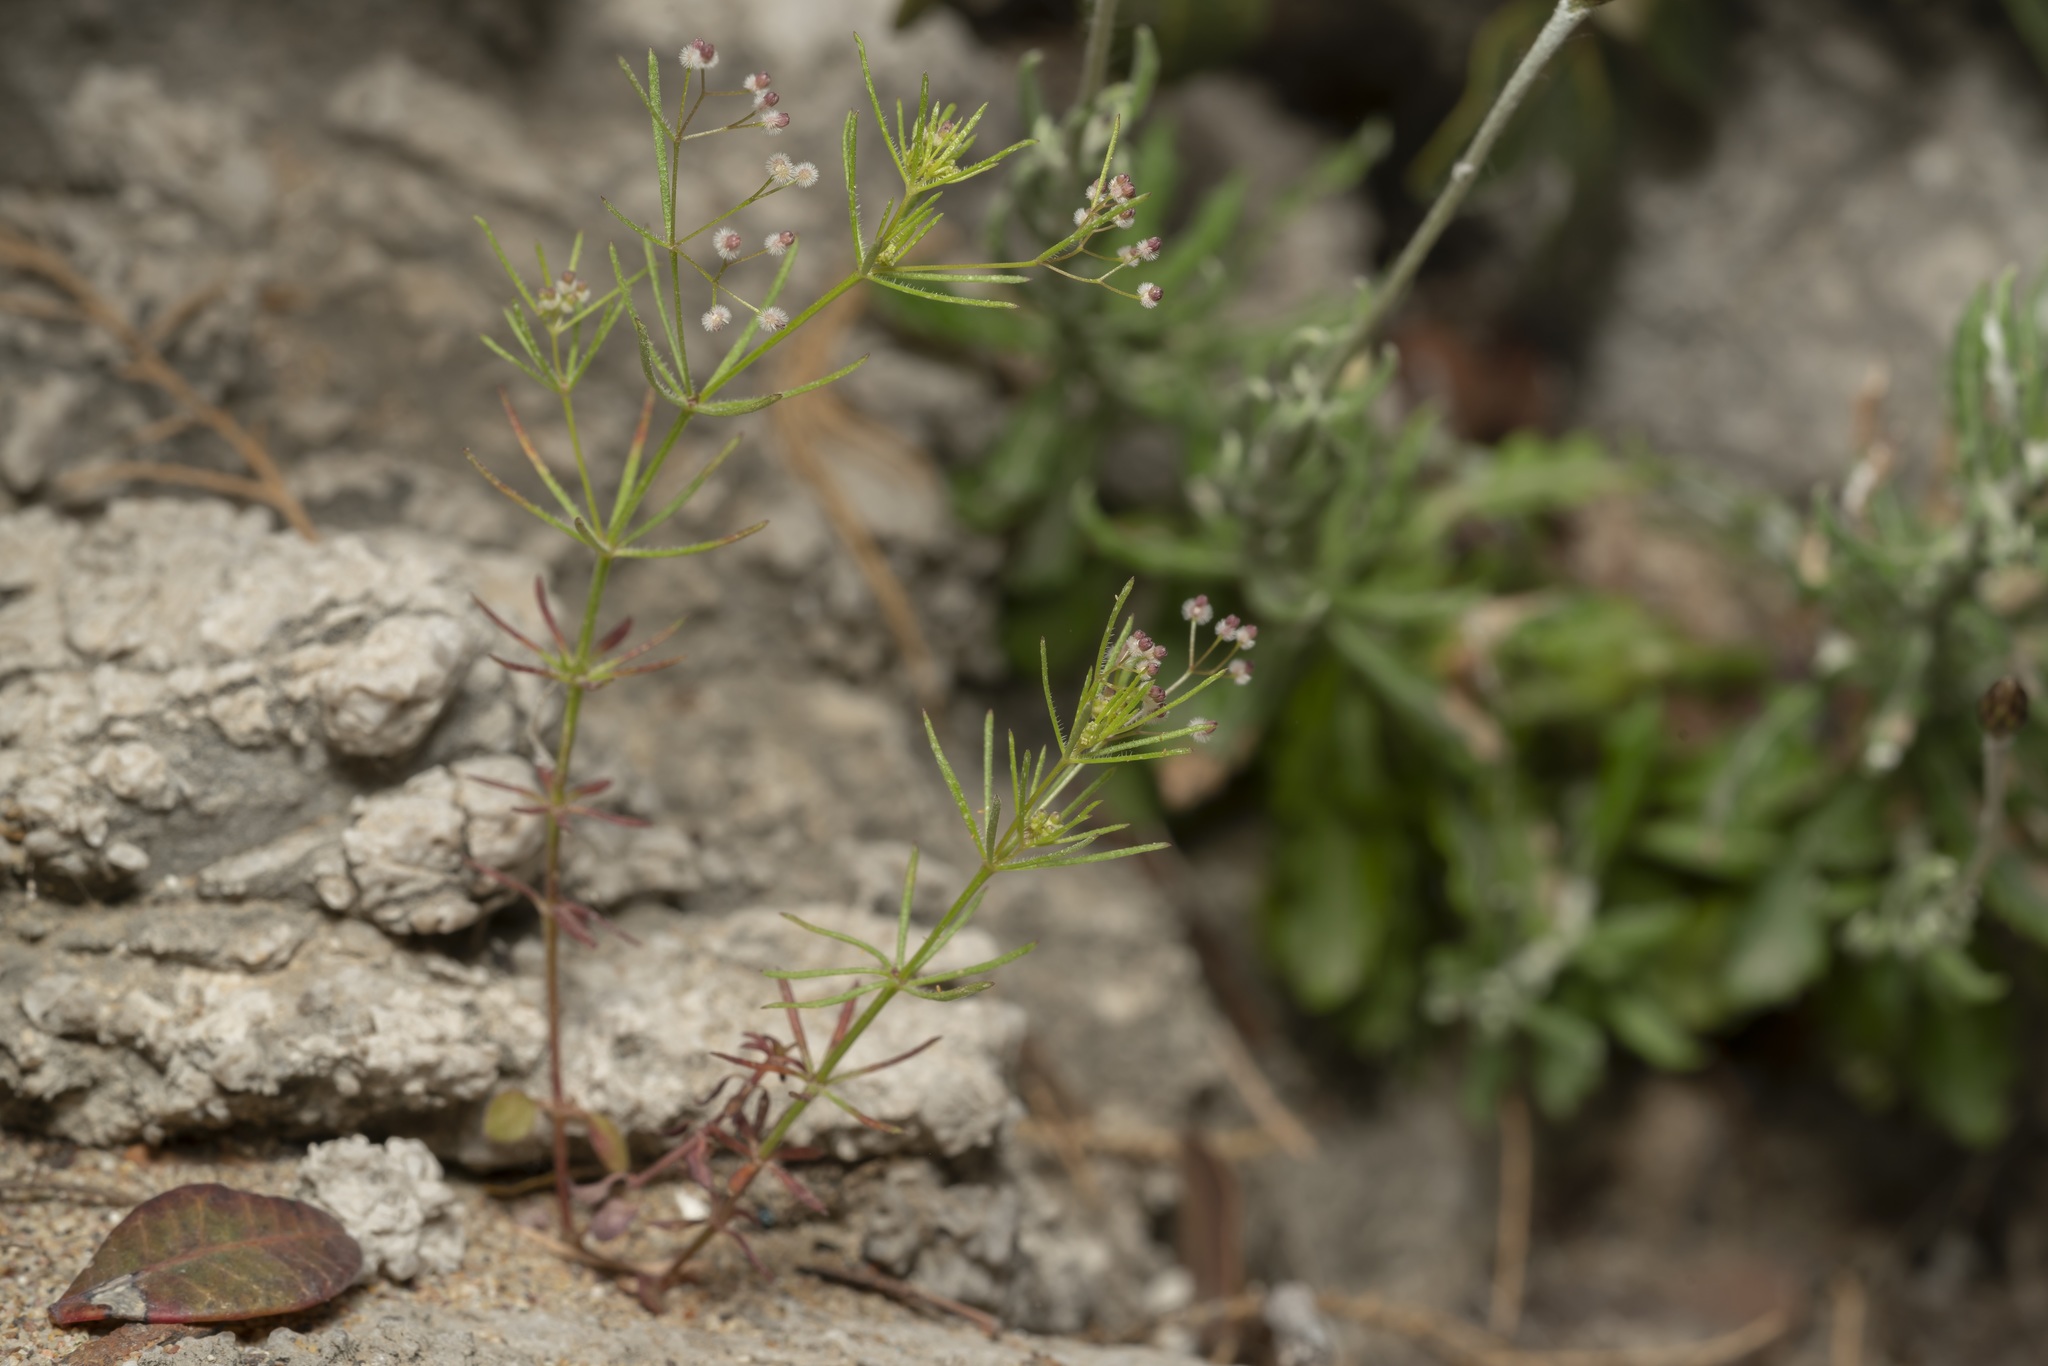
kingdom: Plantae
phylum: Tracheophyta
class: Magnoliopsida
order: Gentianales
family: Rubiaceae
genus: Galium
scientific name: Galium setaceum
